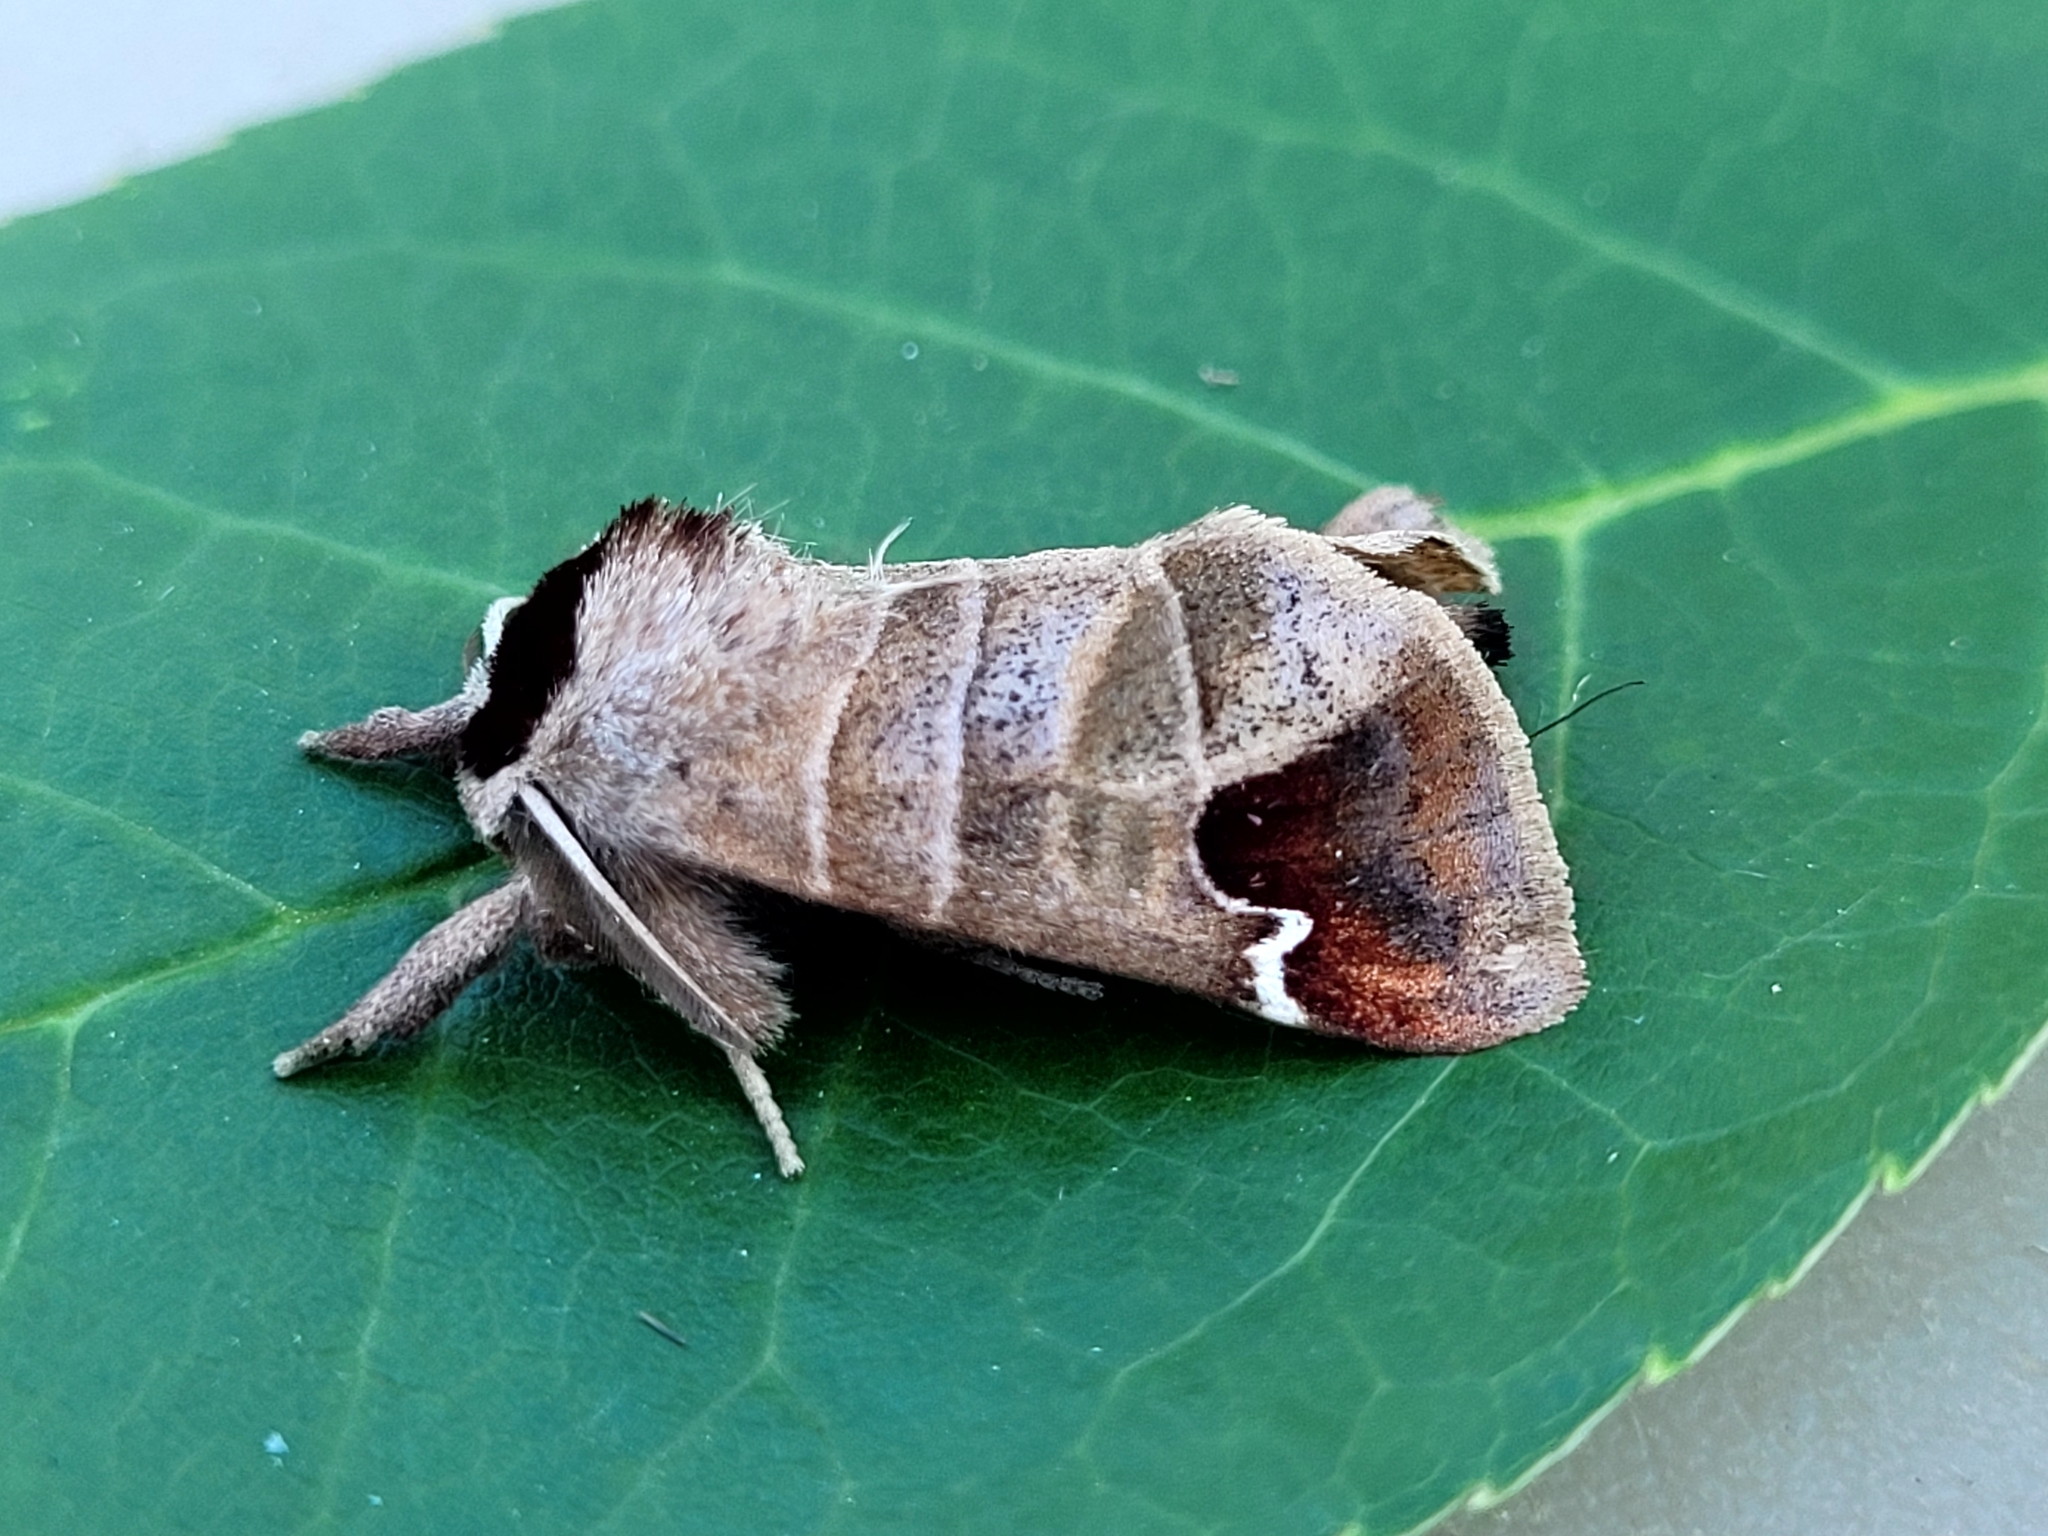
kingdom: Animalia
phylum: Arthropoda
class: Insecta
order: Lepidoptera
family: Notodontidae
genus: Clostera
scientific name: Clostera albosigma
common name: Sigmoid prominent
